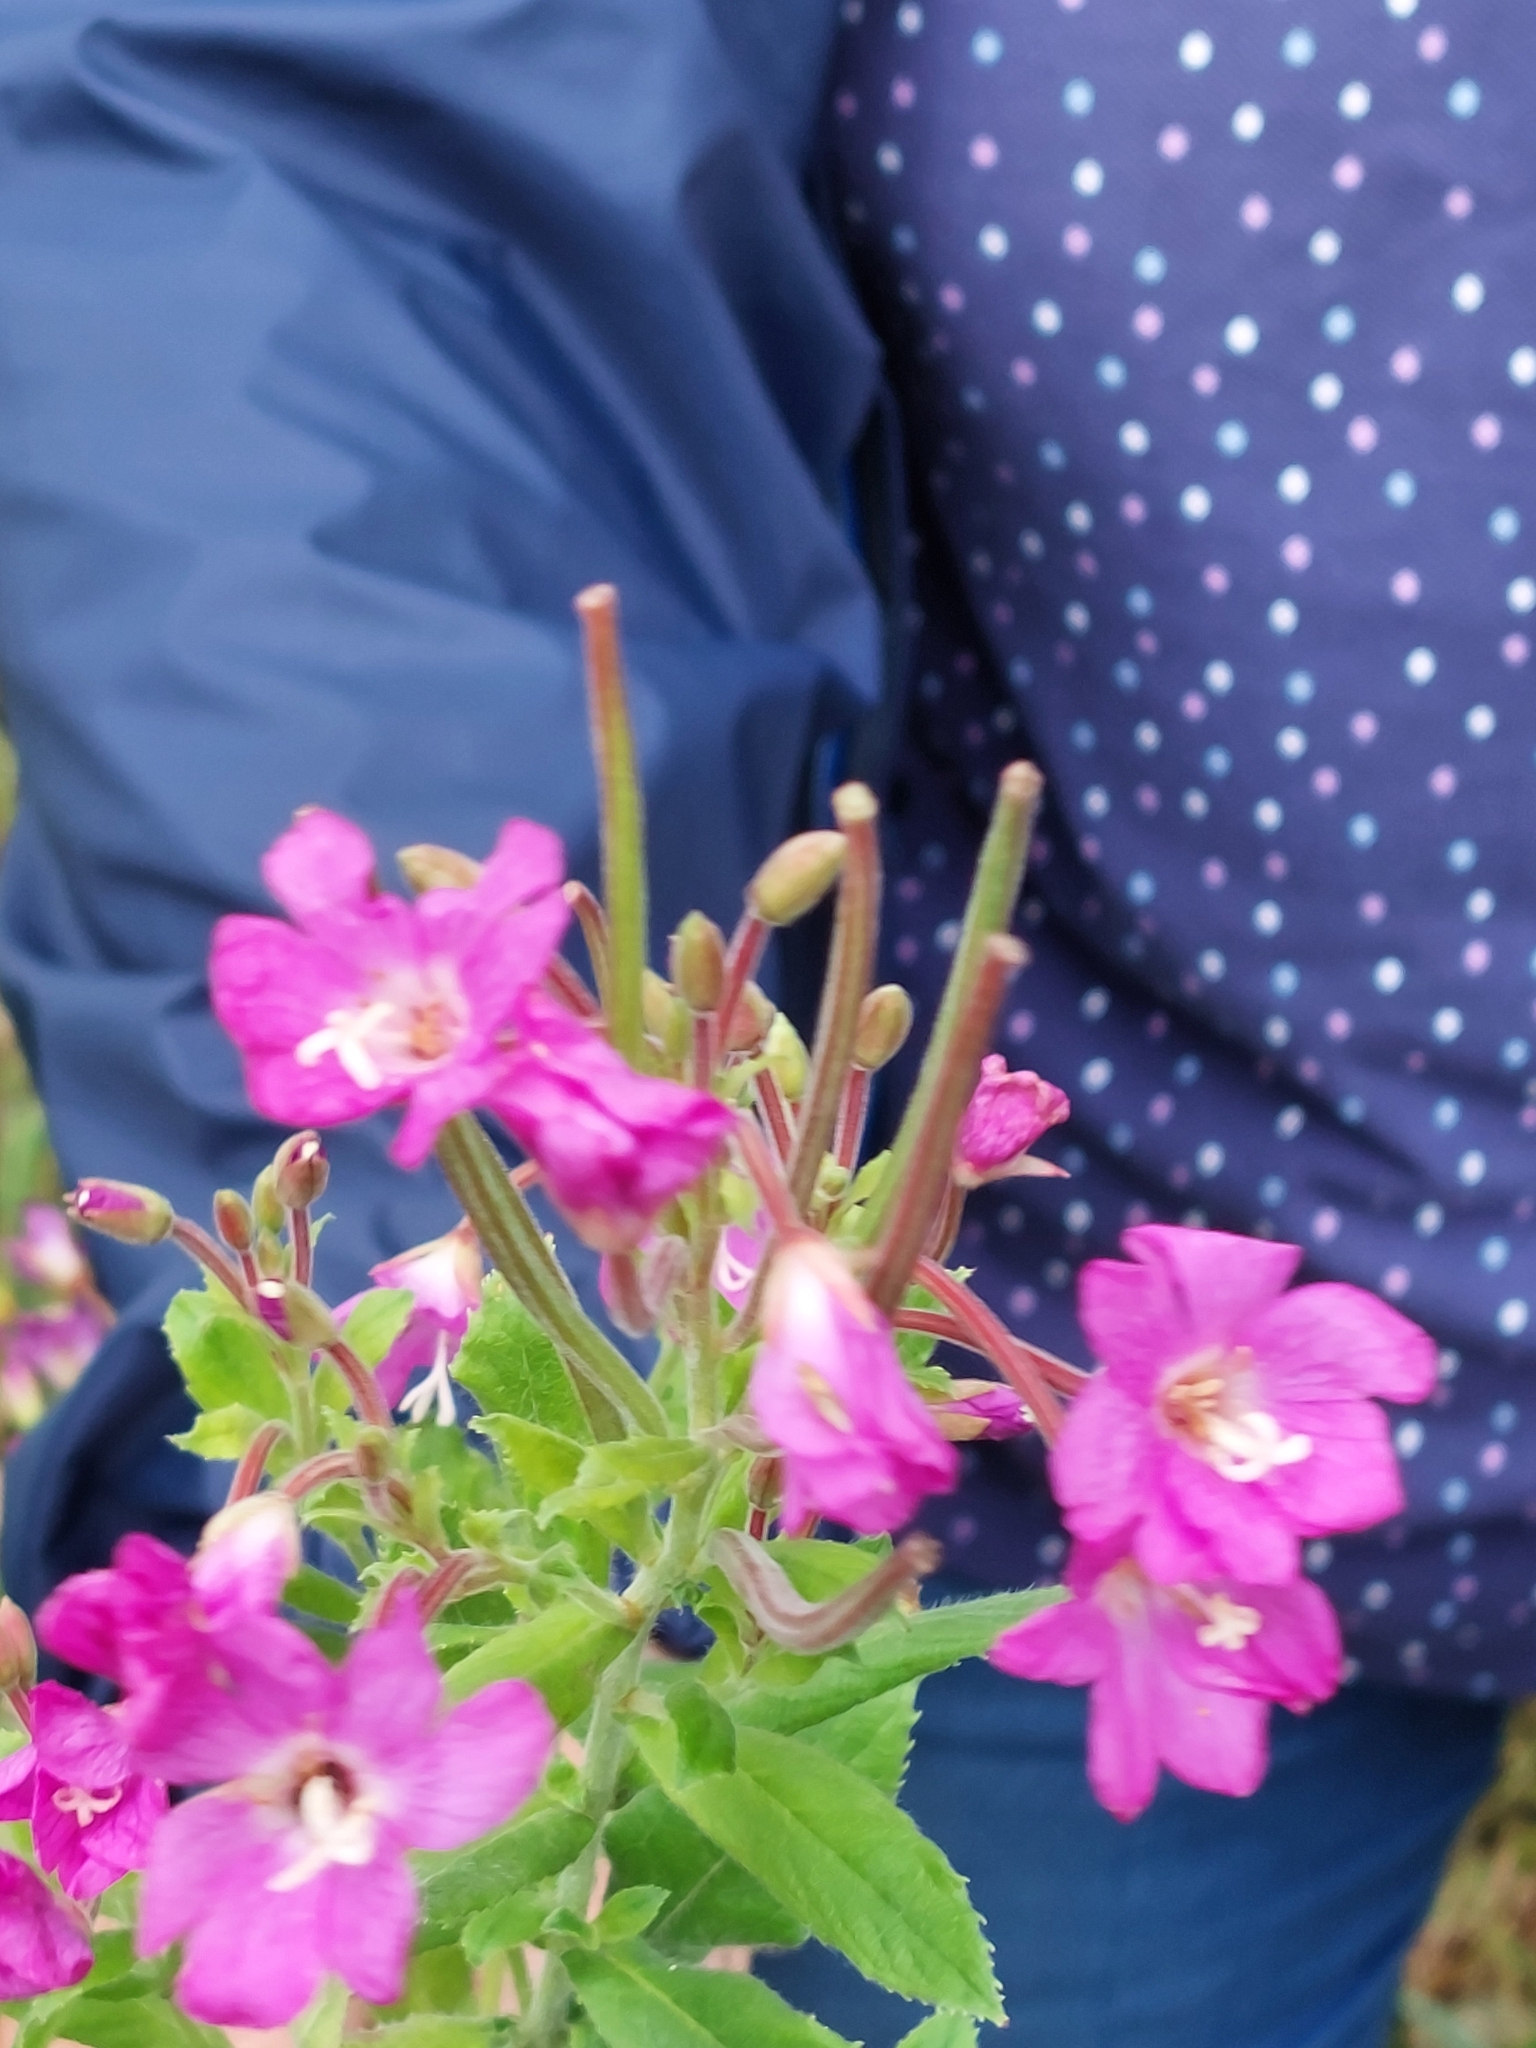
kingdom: Plantae
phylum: Tracheophyta
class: Magnoliopsida
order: Myrtales
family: Onagraceae
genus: Epilobium
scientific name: Epilobium hirsutum
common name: Great willowherb
